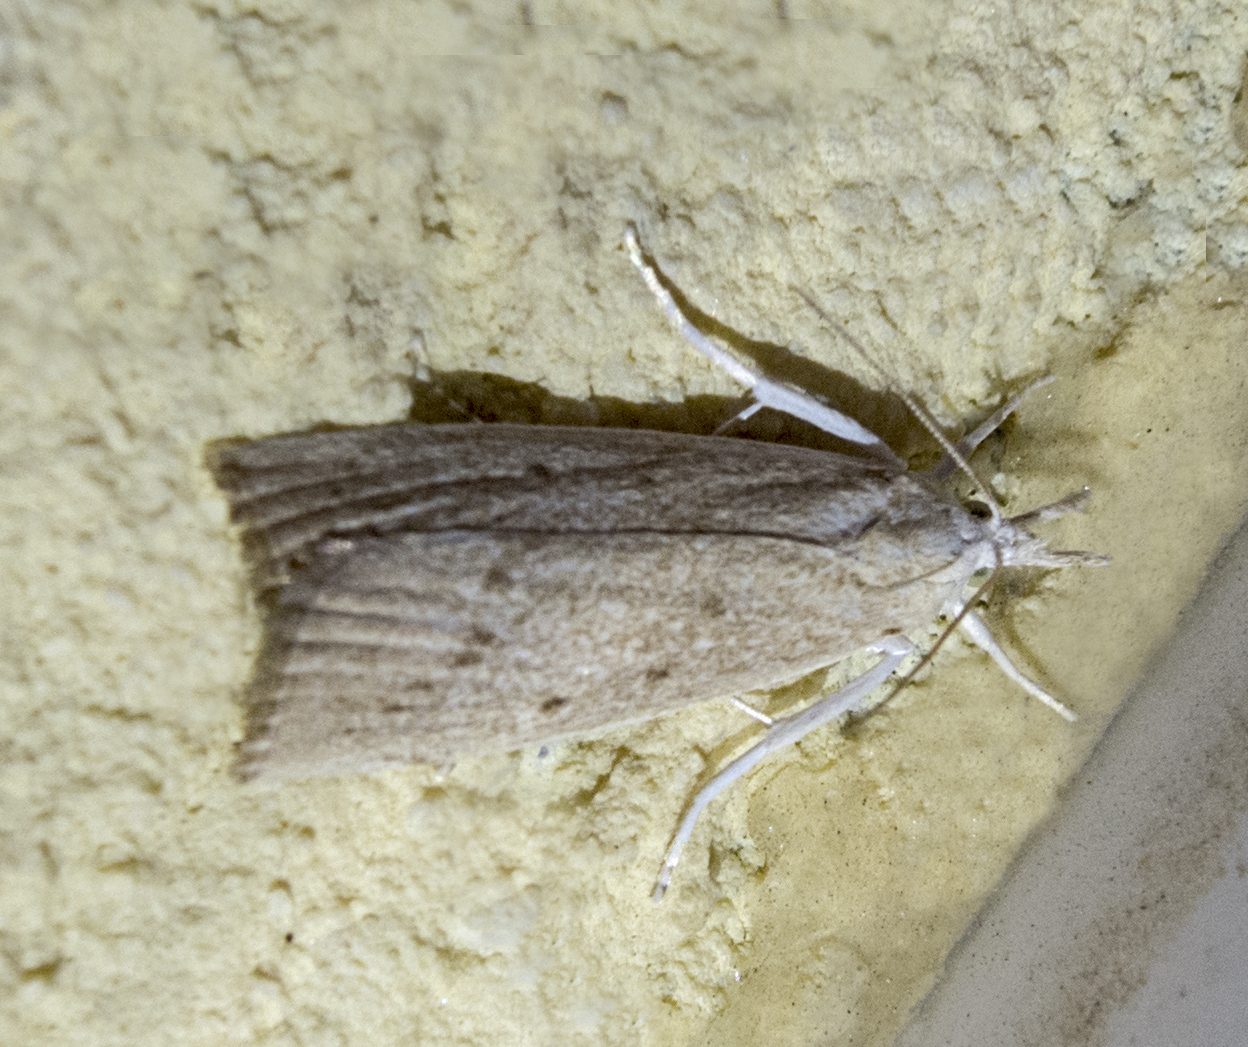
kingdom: Animalia
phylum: Arthropoda
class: Insecta
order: Lepidoptera
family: Crambidae
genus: Calamotropha
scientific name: Calamotropha paludella
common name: Bulrush veneer
